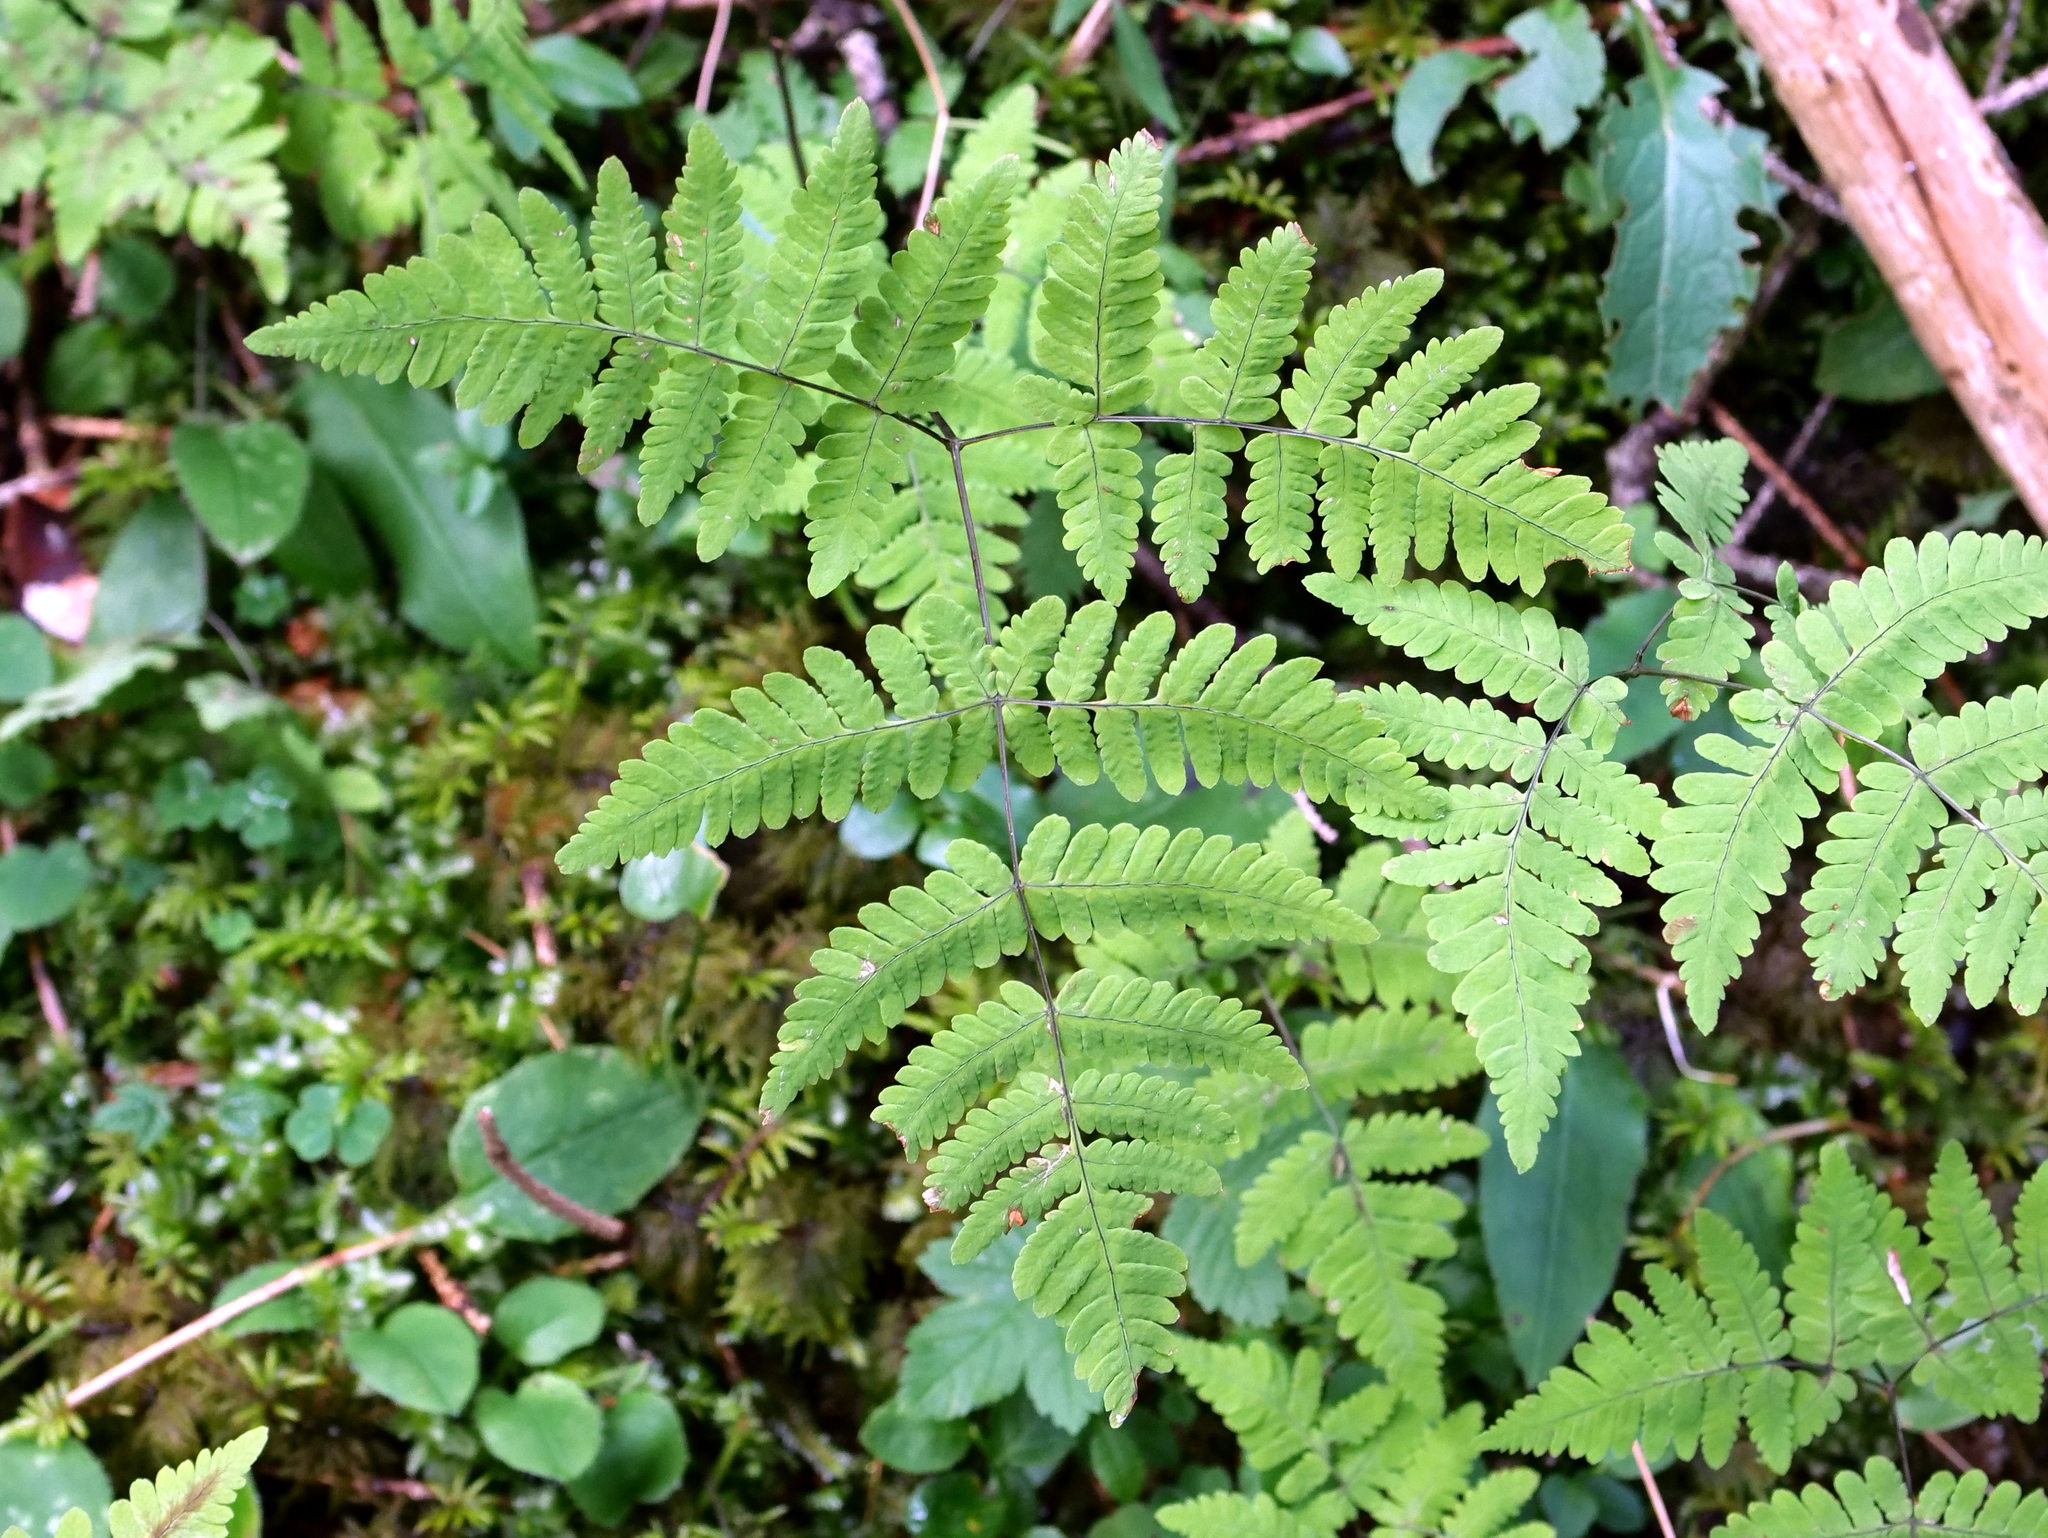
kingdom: Plantae
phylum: Tracheophyta
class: Polypodiopsida
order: Polypodiales
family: Cystopteridaceae
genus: Gymnocarpium
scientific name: Gymnocarpium dryopteris
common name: Oak fern
